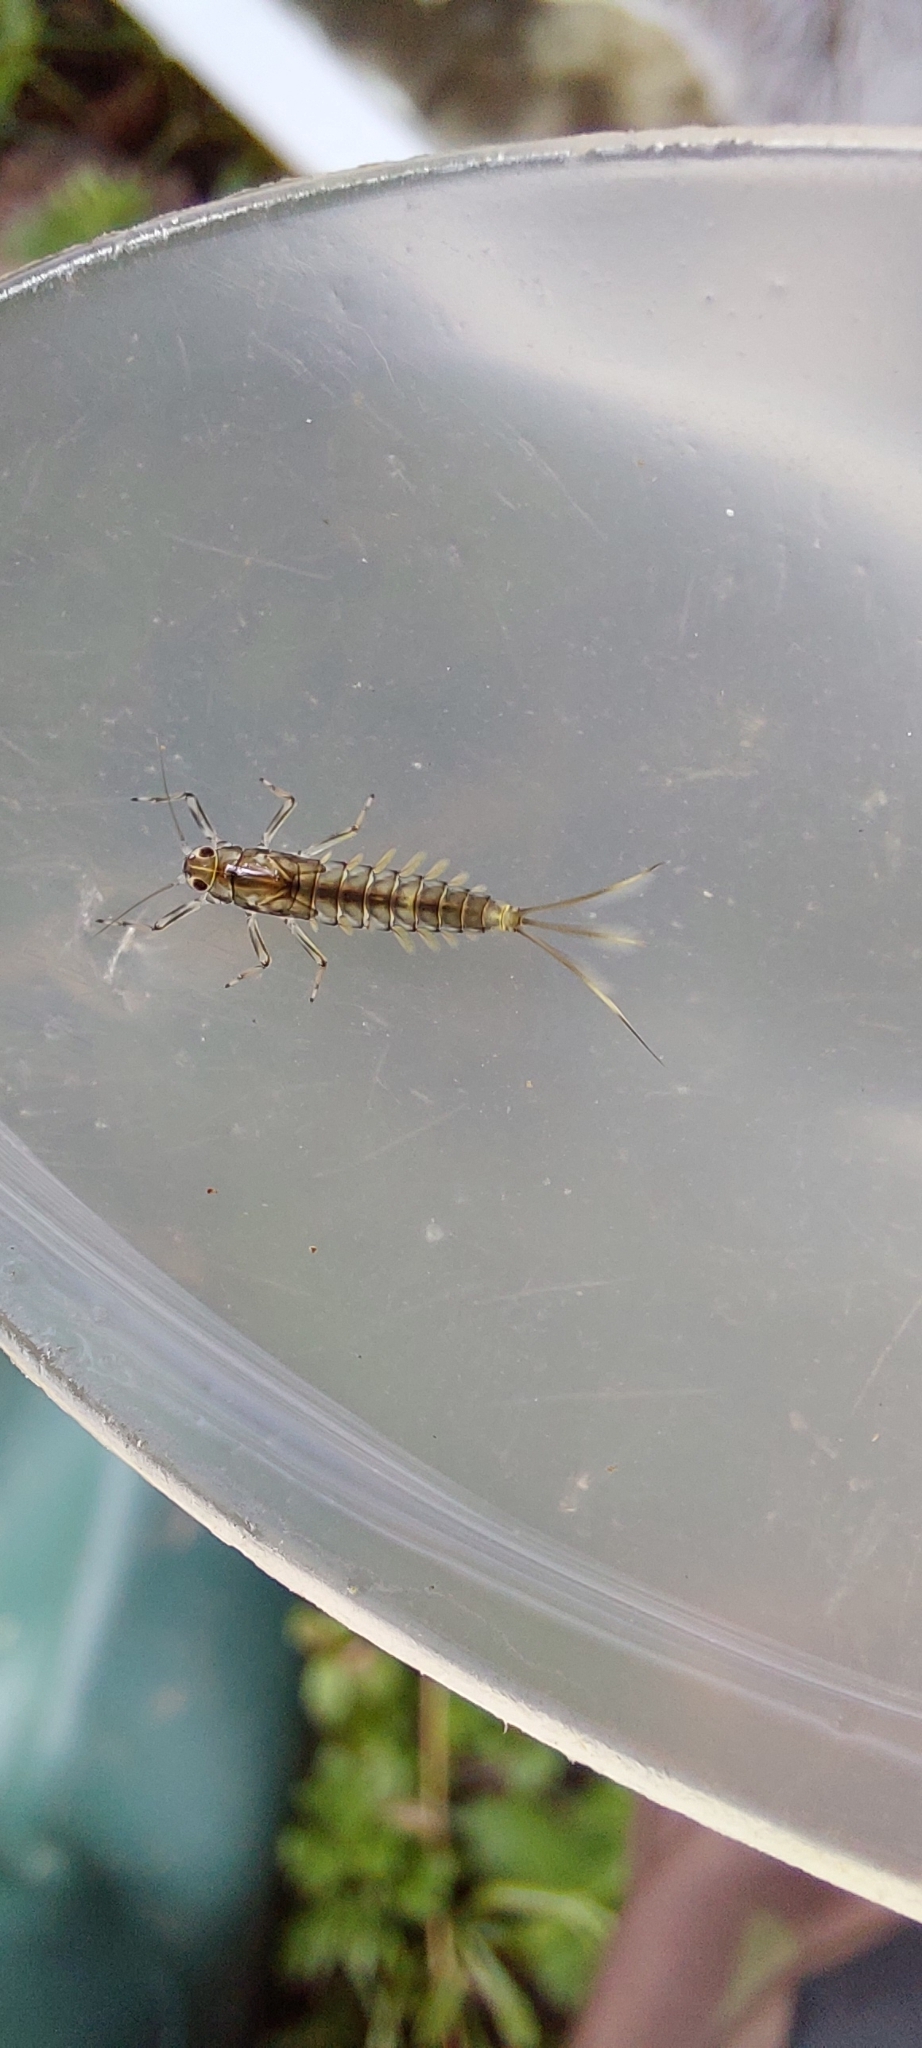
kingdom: Animalia
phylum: Arthropoda
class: Insecta
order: Ephemeroptera
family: Baetidae
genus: Baetis
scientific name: Baetis rhodani
